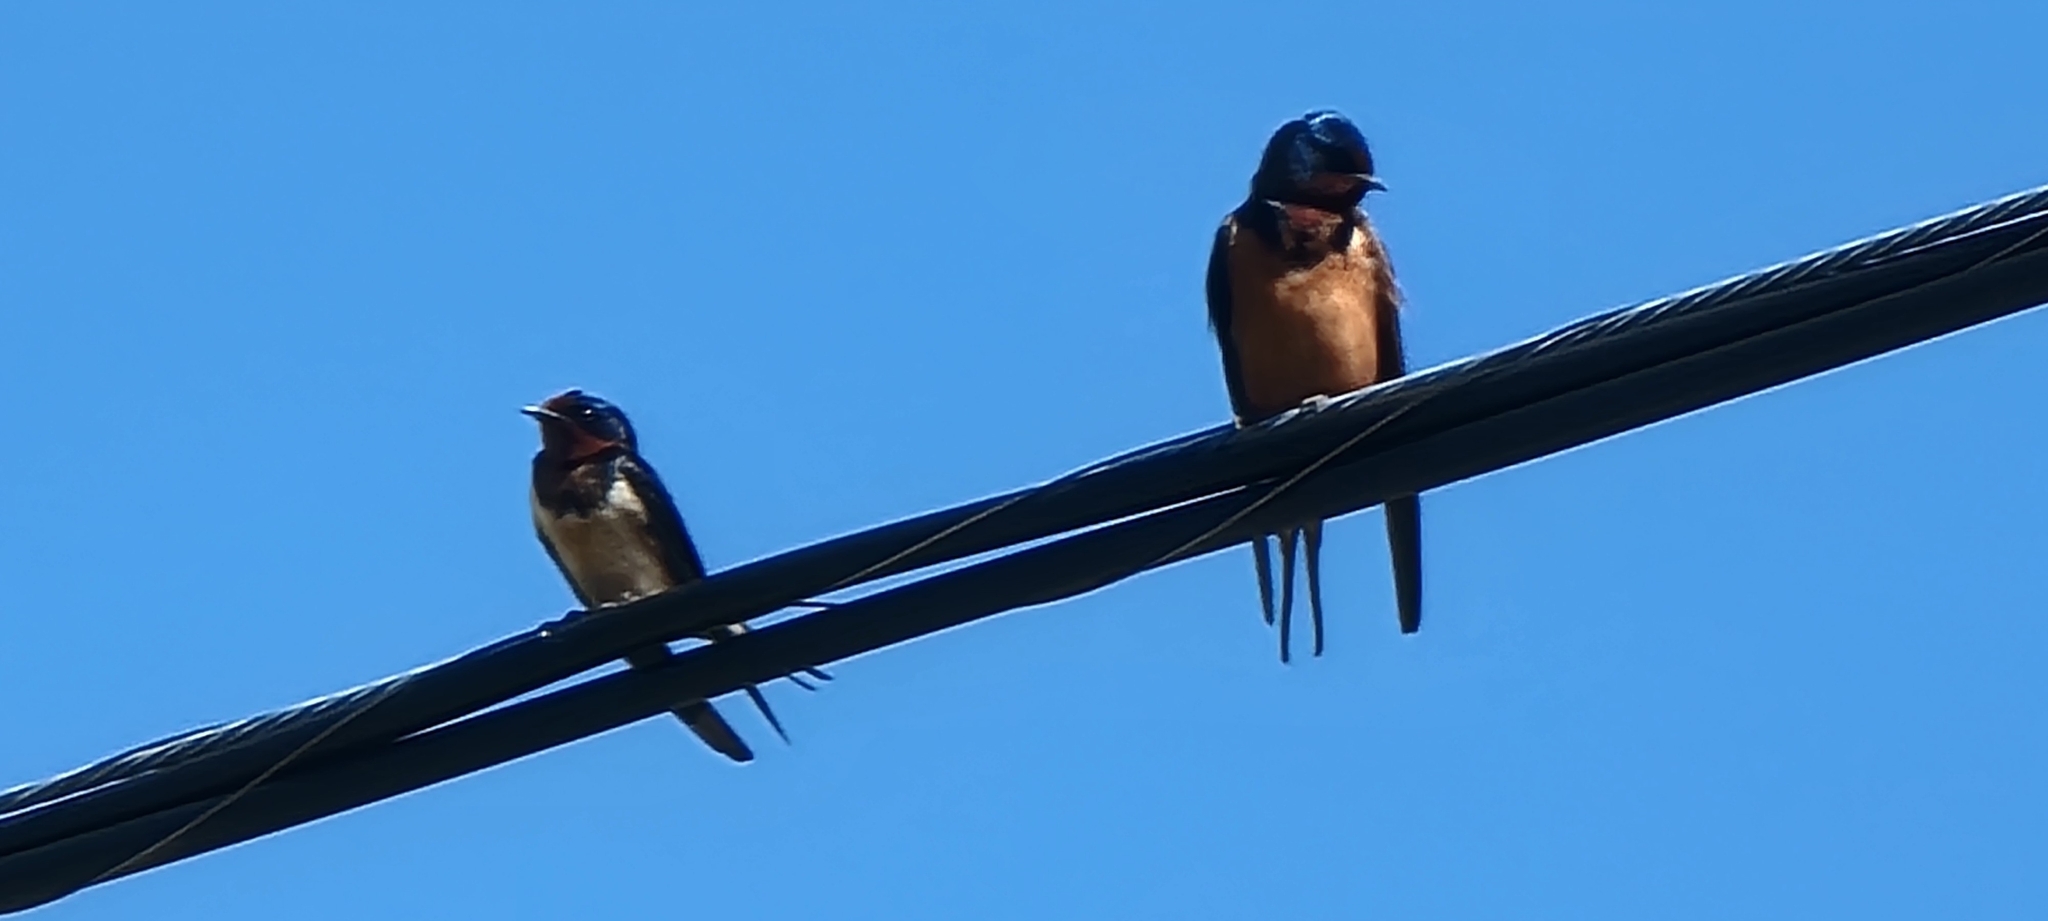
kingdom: Animalia
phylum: Chordata
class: Aves
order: Passeriformes
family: Hirundinidae
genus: Hirundo
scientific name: Hirundo rustica
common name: Barn swallow
